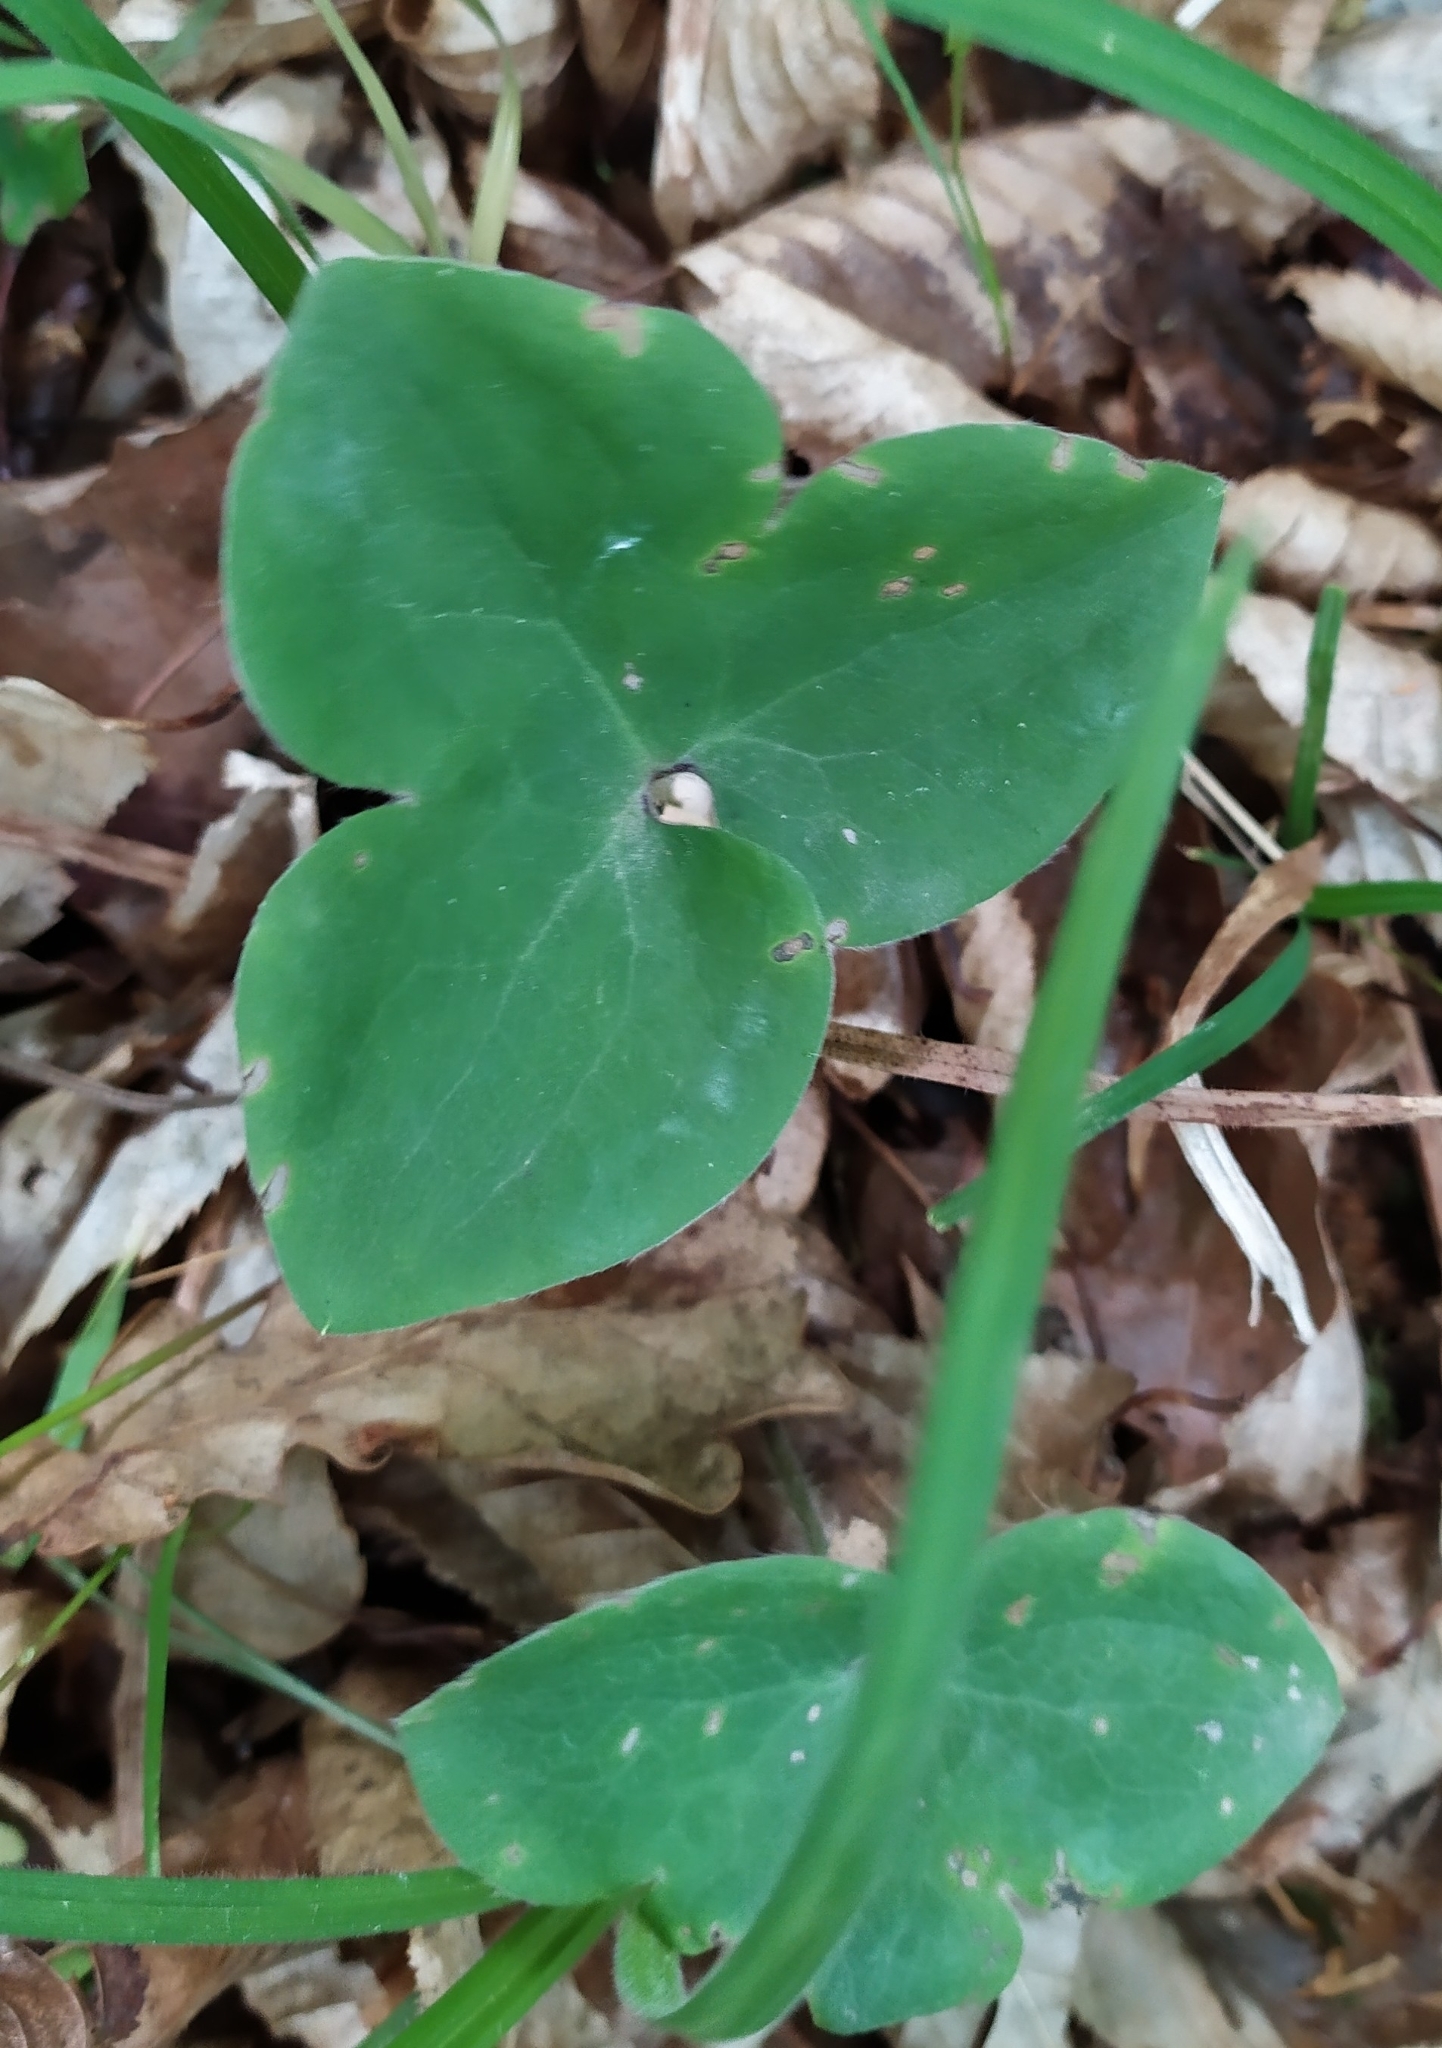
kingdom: Plantae
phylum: Tracheophyta
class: Magnoliopsida
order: Ranunculales
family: Ranunculaceae
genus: Hepatica
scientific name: Hepatica nobilis
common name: Liverleaf
